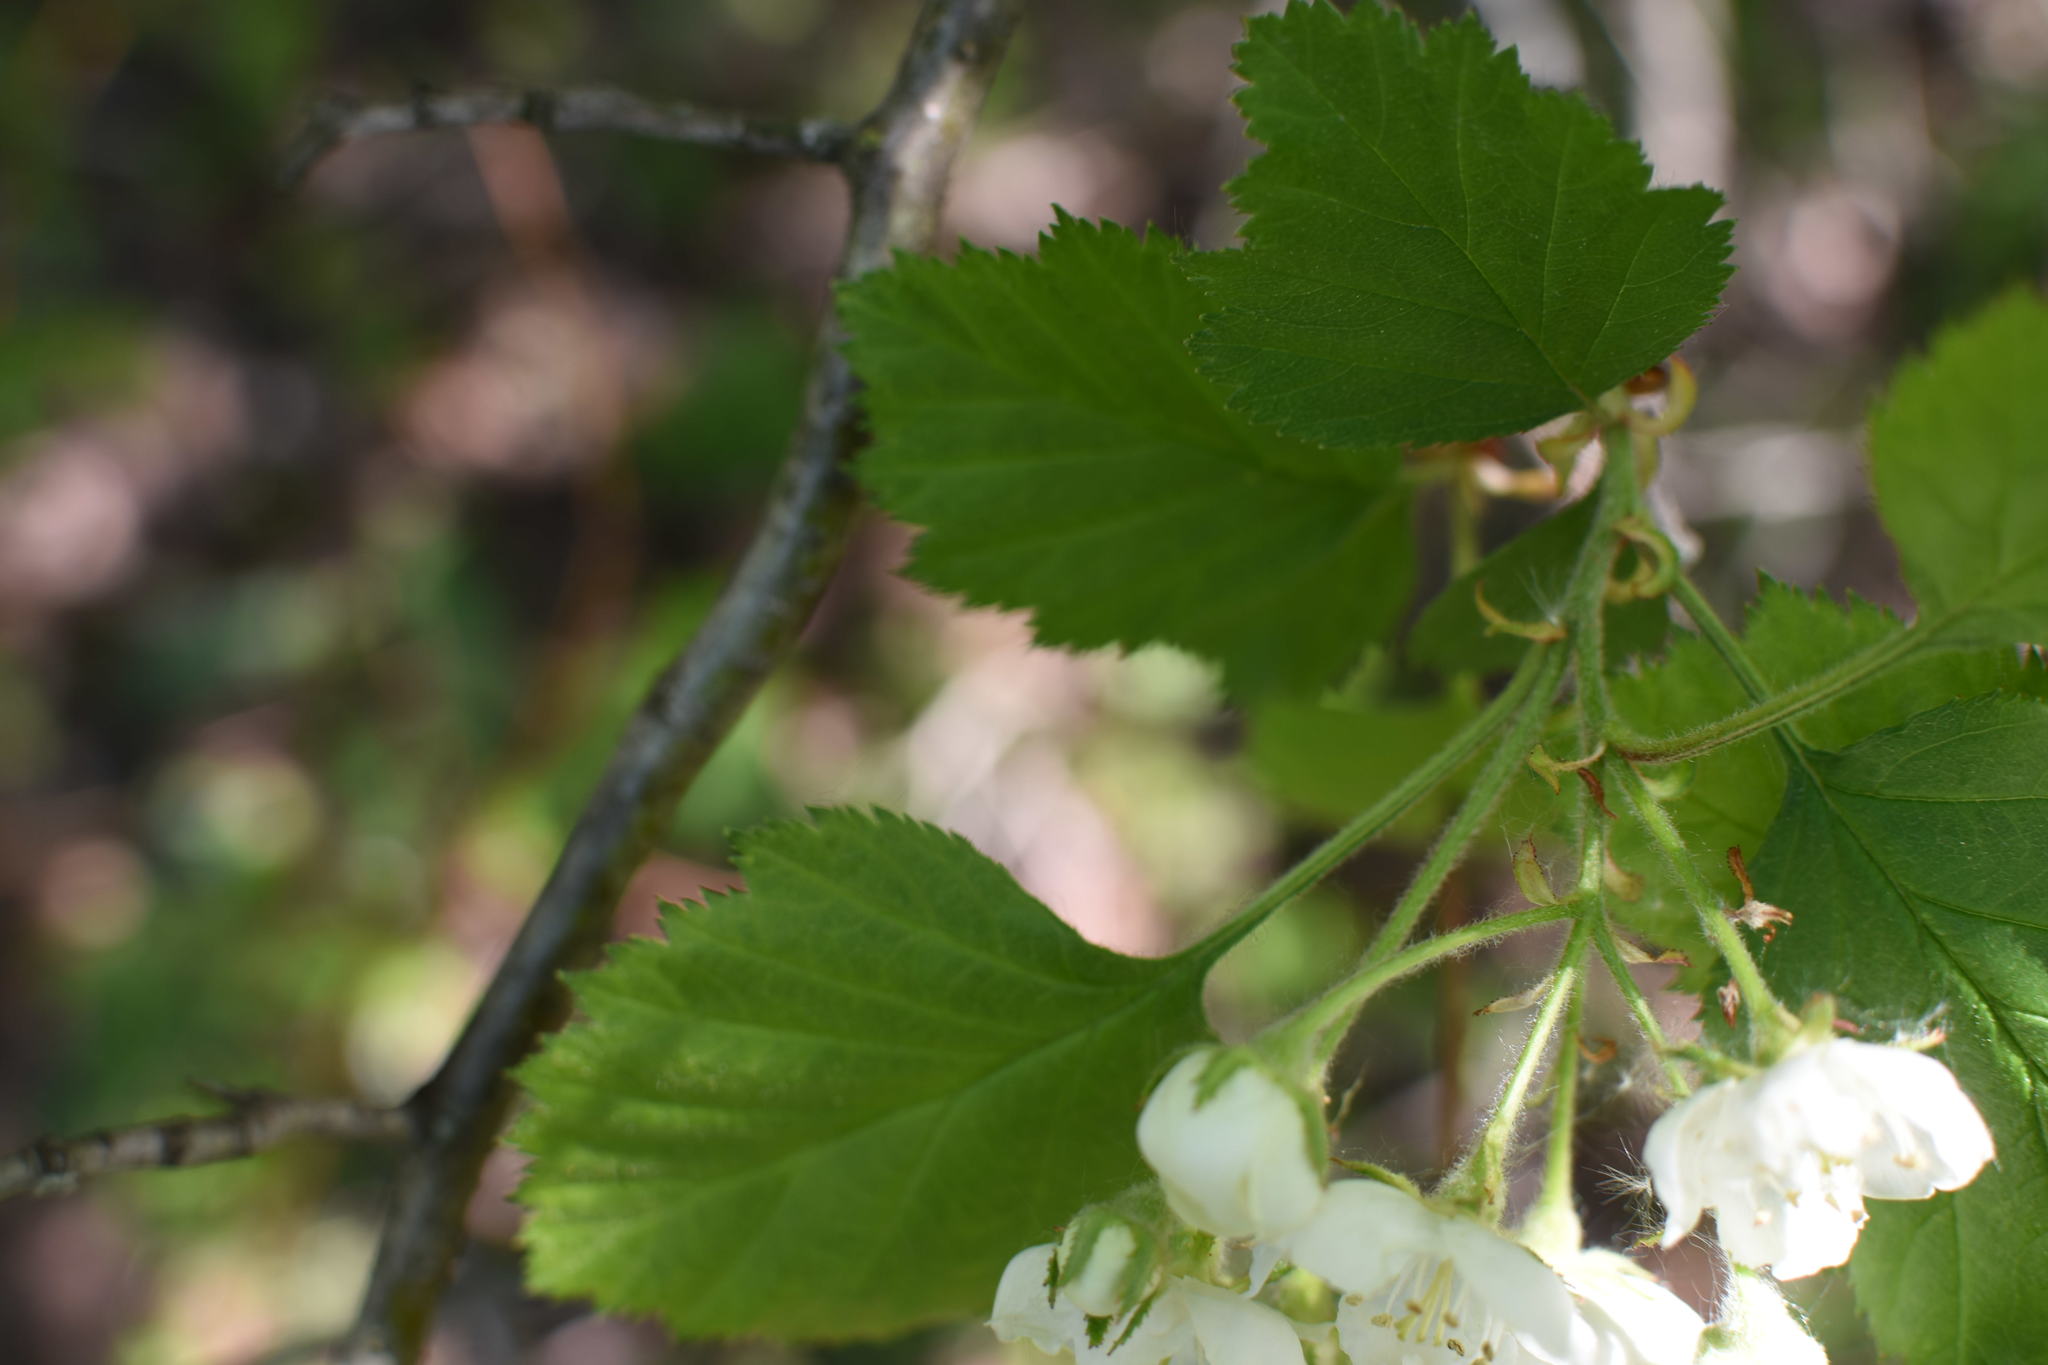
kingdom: Plantae
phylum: Tracheophyta
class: Magnoliopsida
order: Rosales
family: Rosaceae
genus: Crataegus
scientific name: Crataegus submollis
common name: Hairy cockspurthorn
